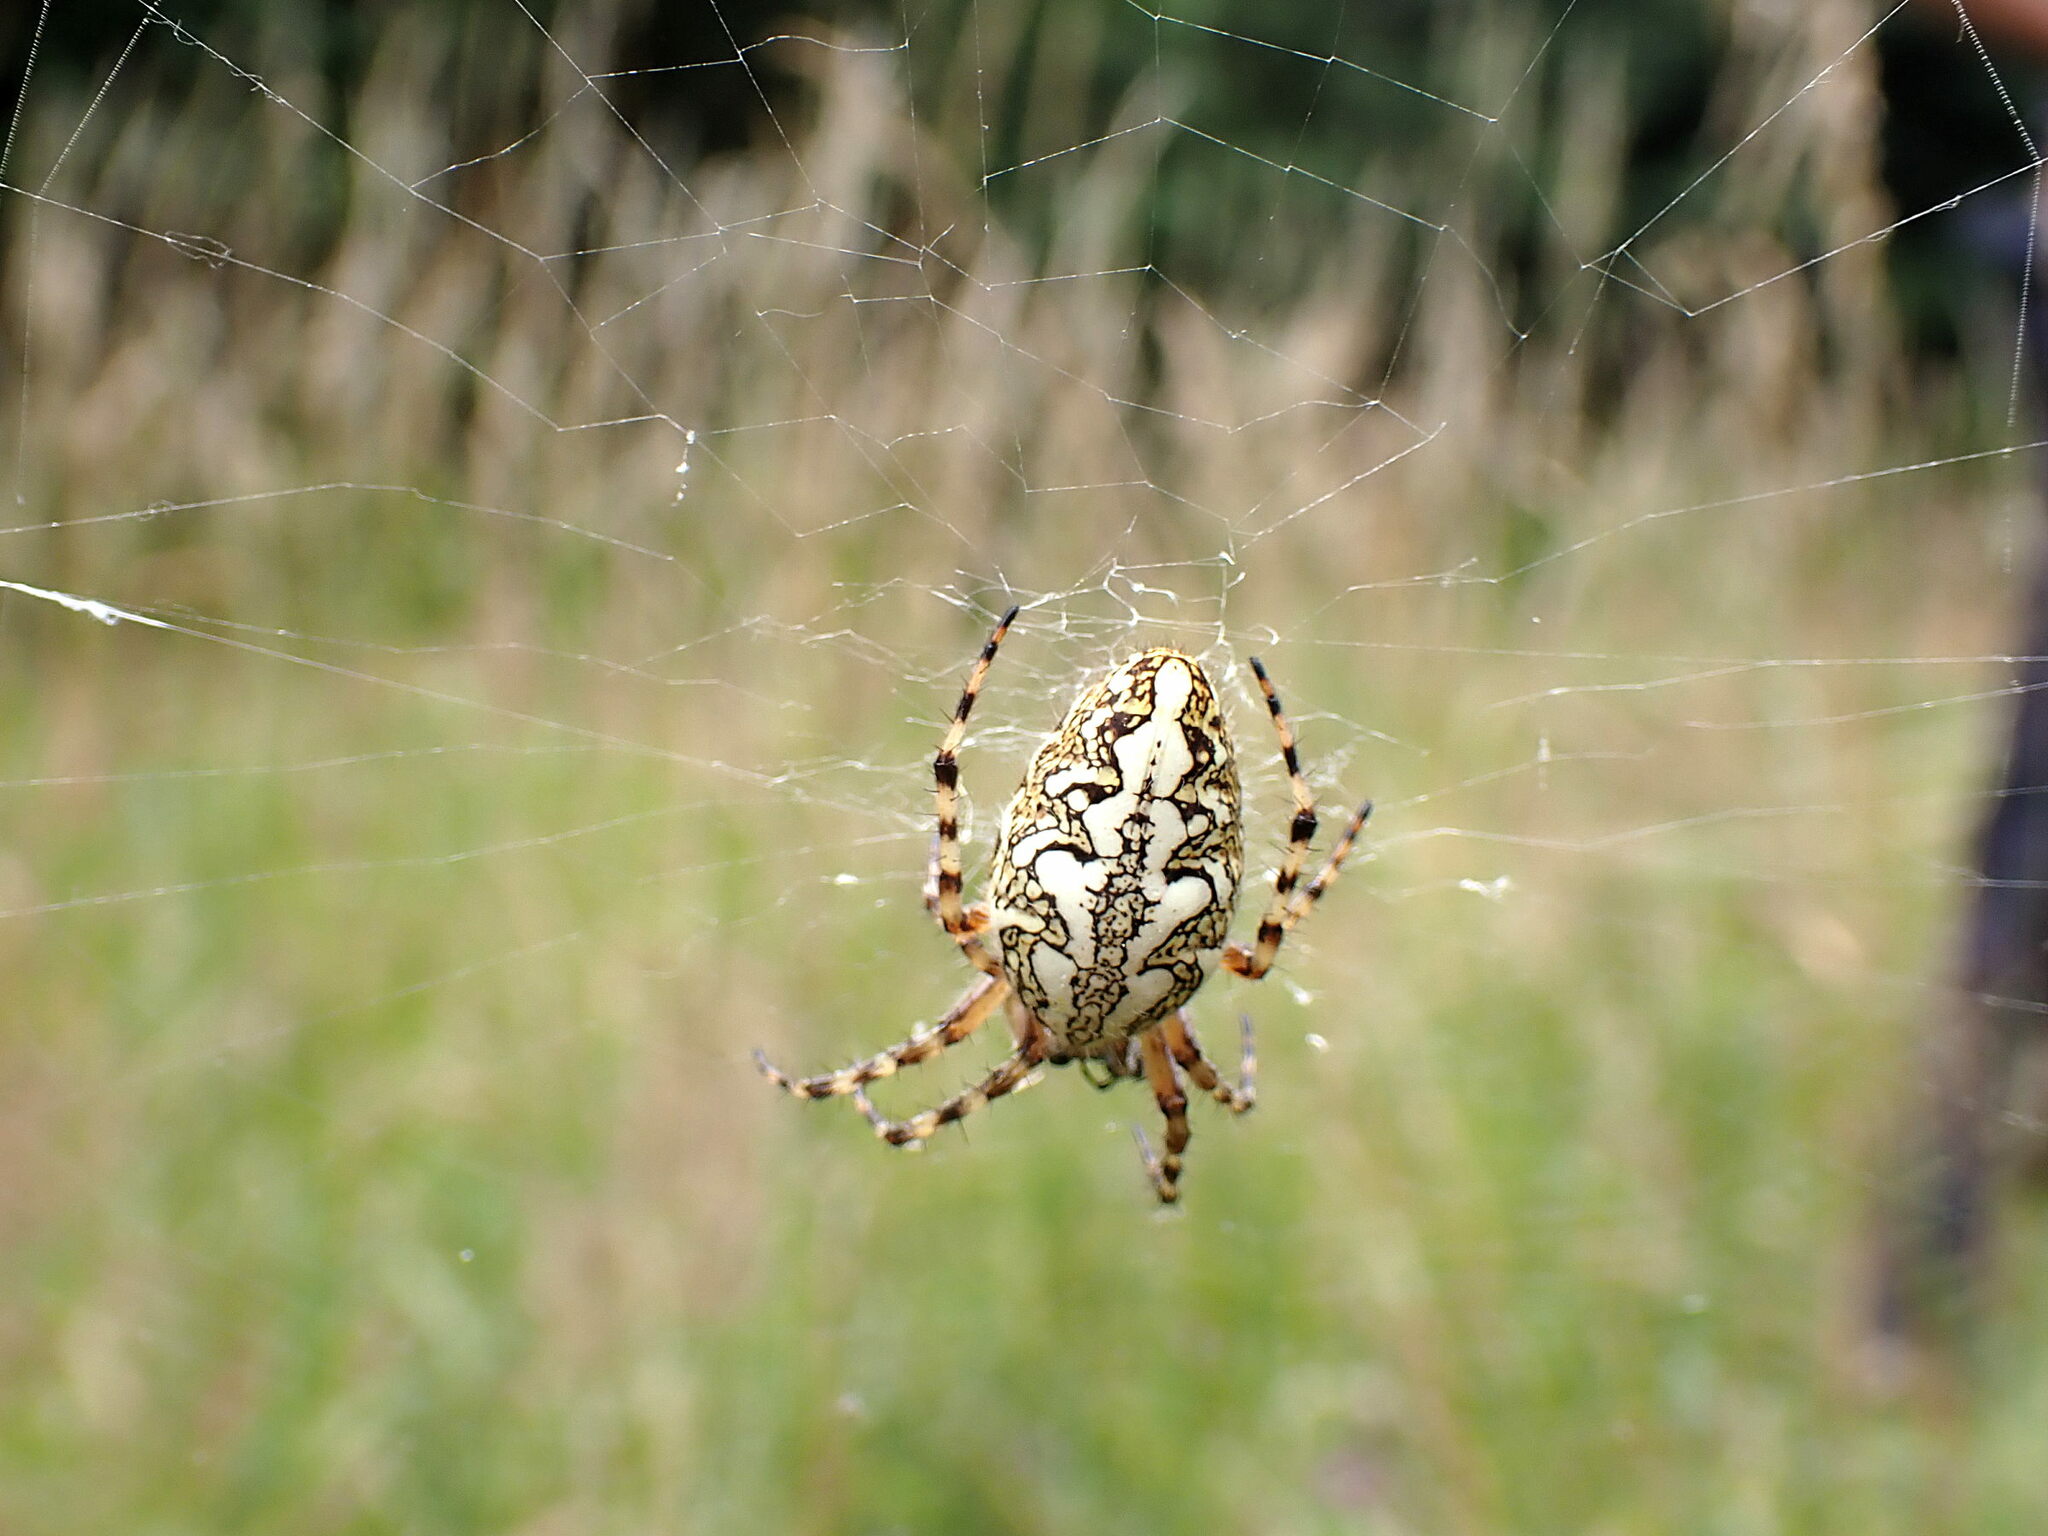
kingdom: Animalia
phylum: Arthropoda
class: Arachnida
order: Araneae
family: Araneidae
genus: Aculepeira
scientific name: Aculepeira ceropegia
